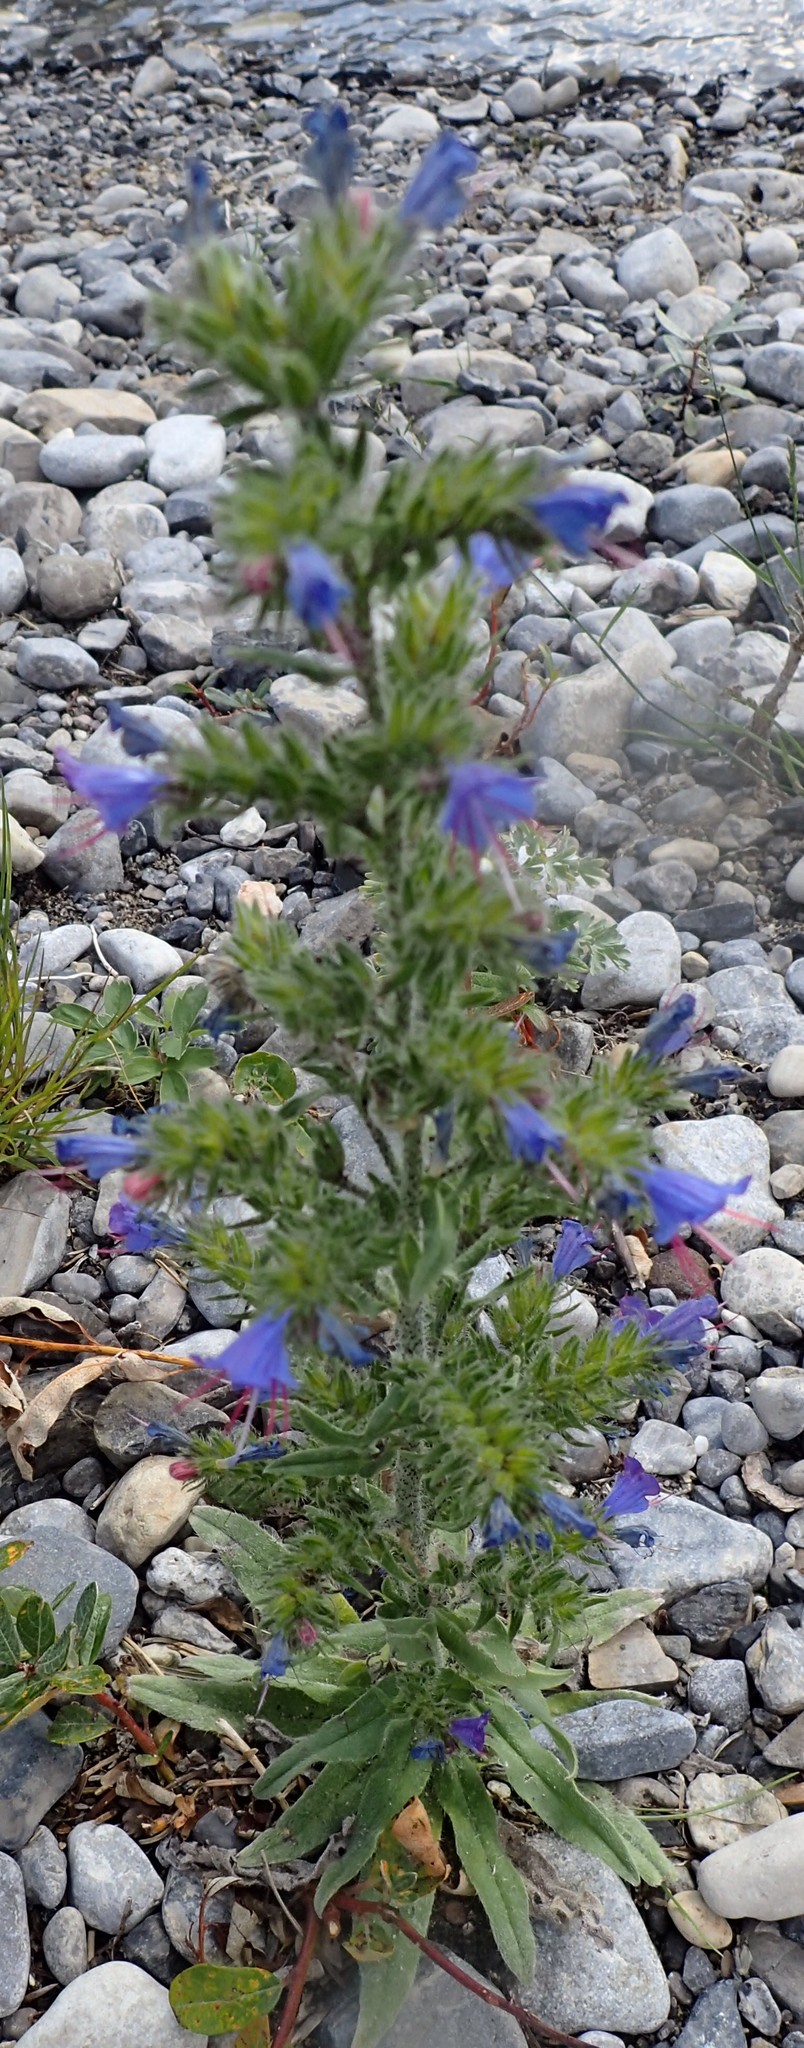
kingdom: Plantae
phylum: Tracheophyta
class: Magnoliopsida
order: Boraginales
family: Boraginaceae
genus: Echium
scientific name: Echium vulgare
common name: Common viper's bugloss
